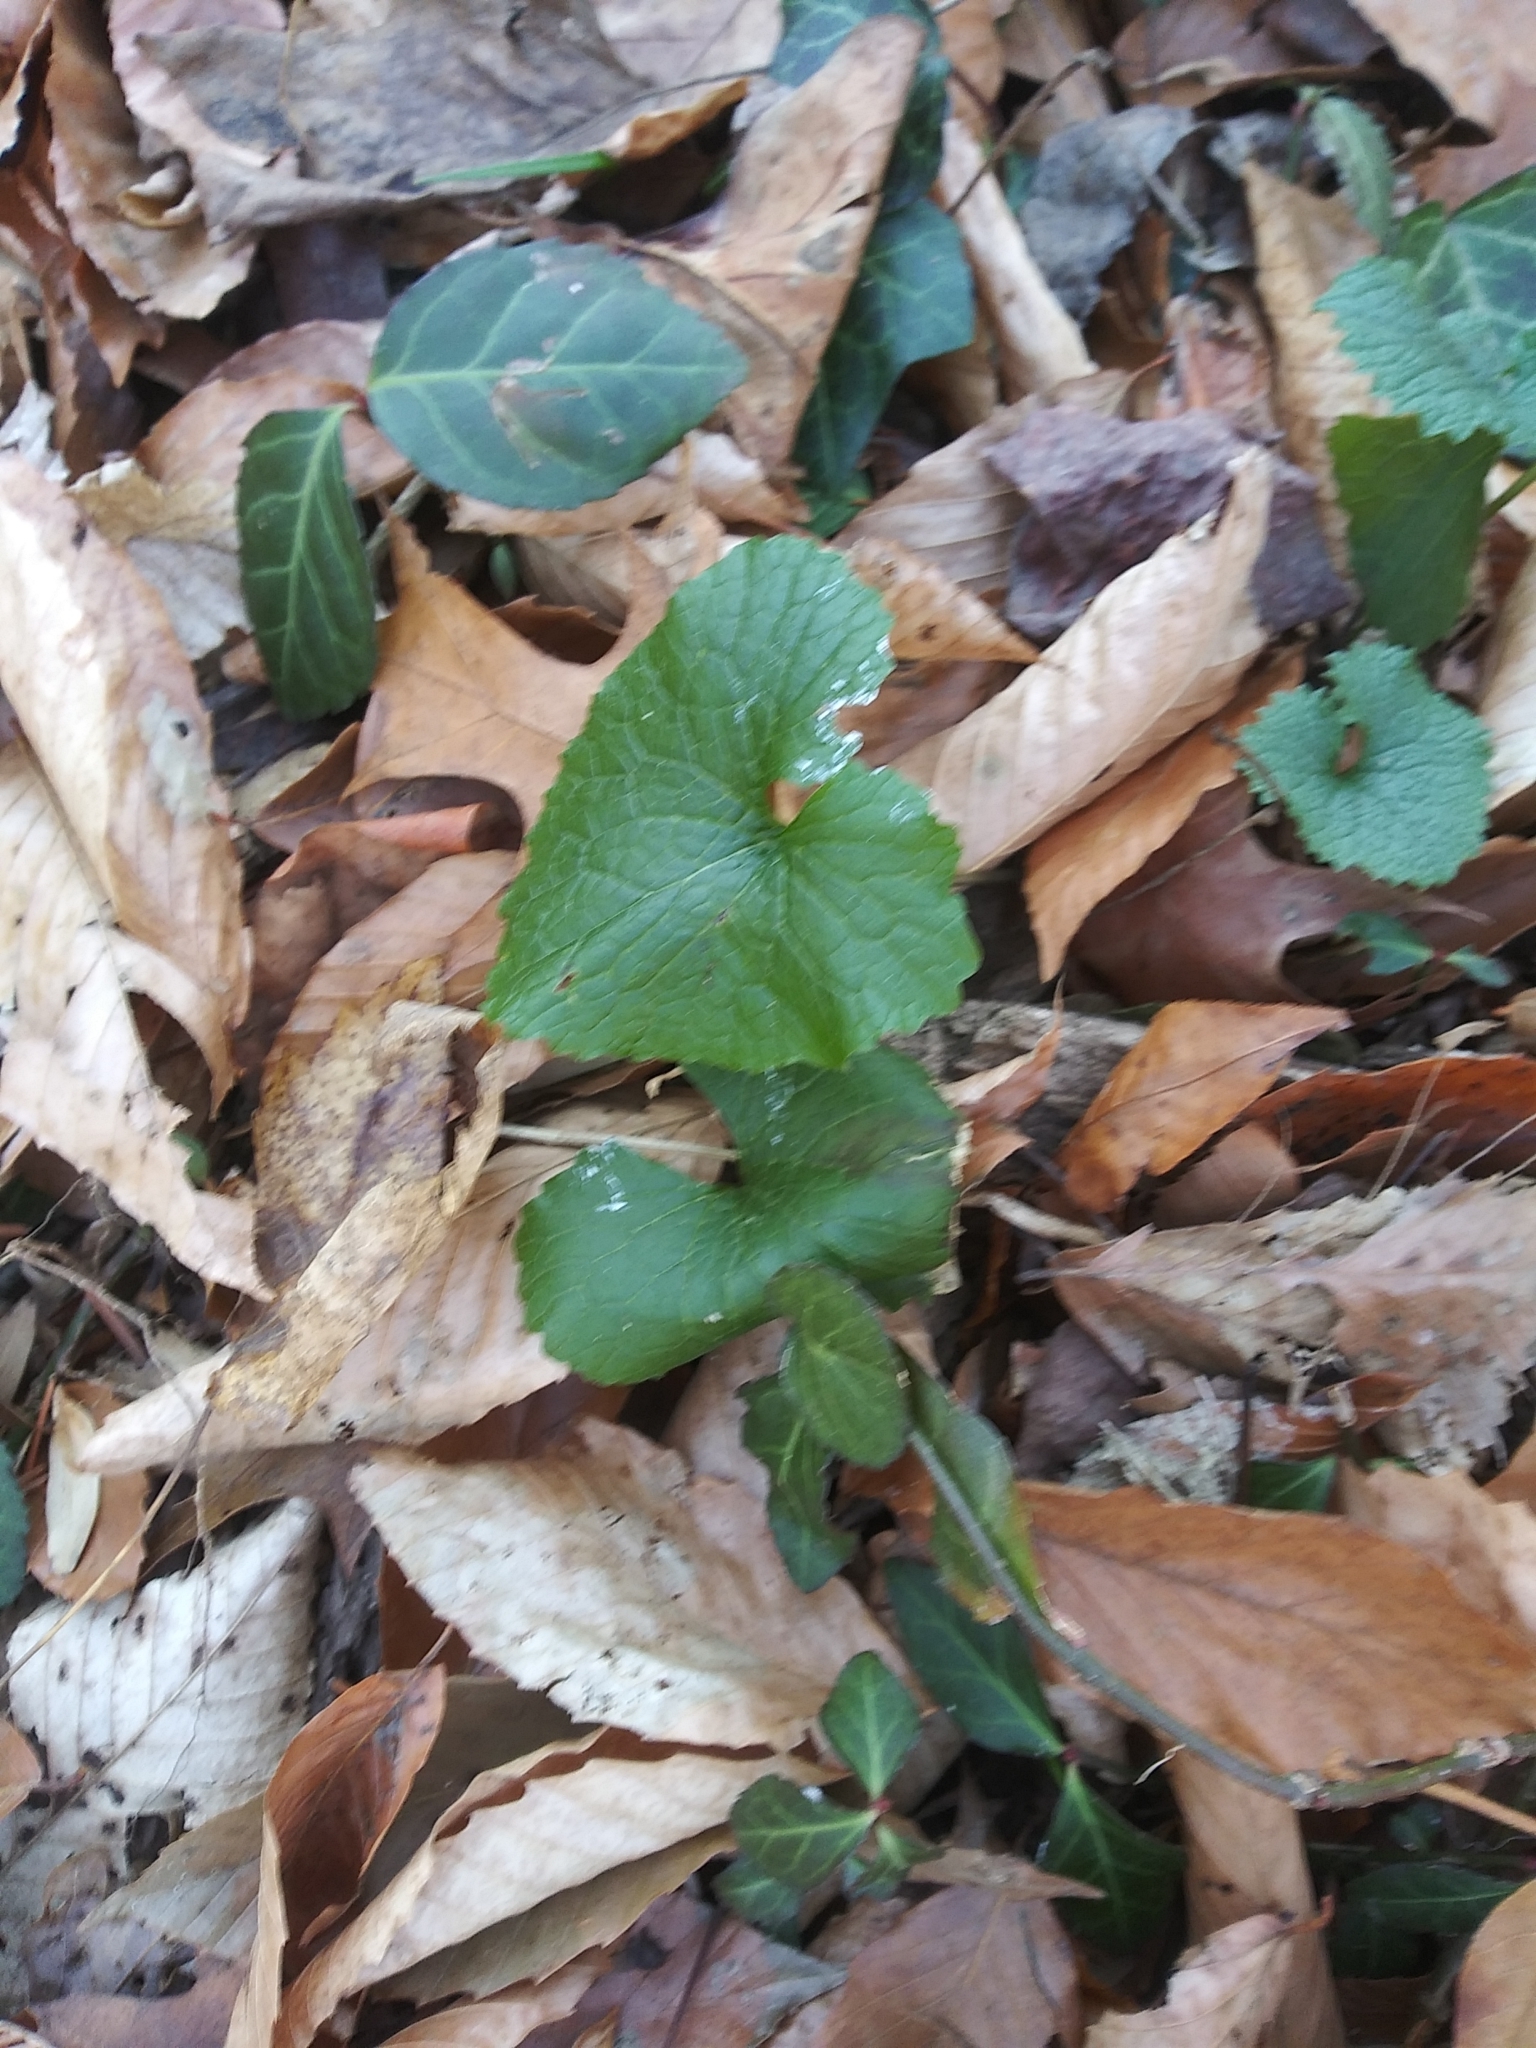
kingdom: Plantae
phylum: Tracheophyta
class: Magnoliopsida
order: Brassicales
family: Brassicaceae
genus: Alliaria
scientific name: Alliaria petiolata
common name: Garlic mustard
